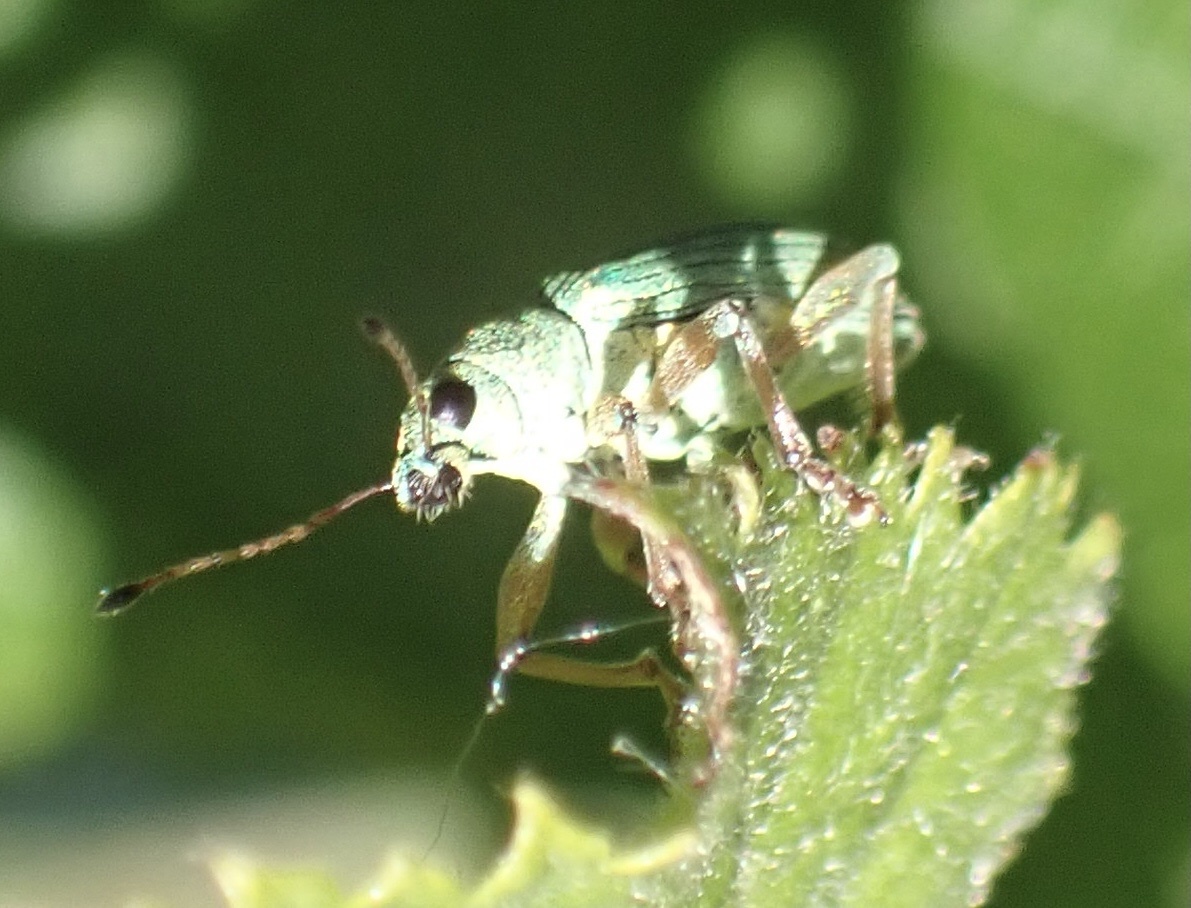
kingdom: Animalia
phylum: Arthropoda
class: Insecta
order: Coleoptera
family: Curculionidae
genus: Polydrusus
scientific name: Polydrusus formosus
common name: Weevil
